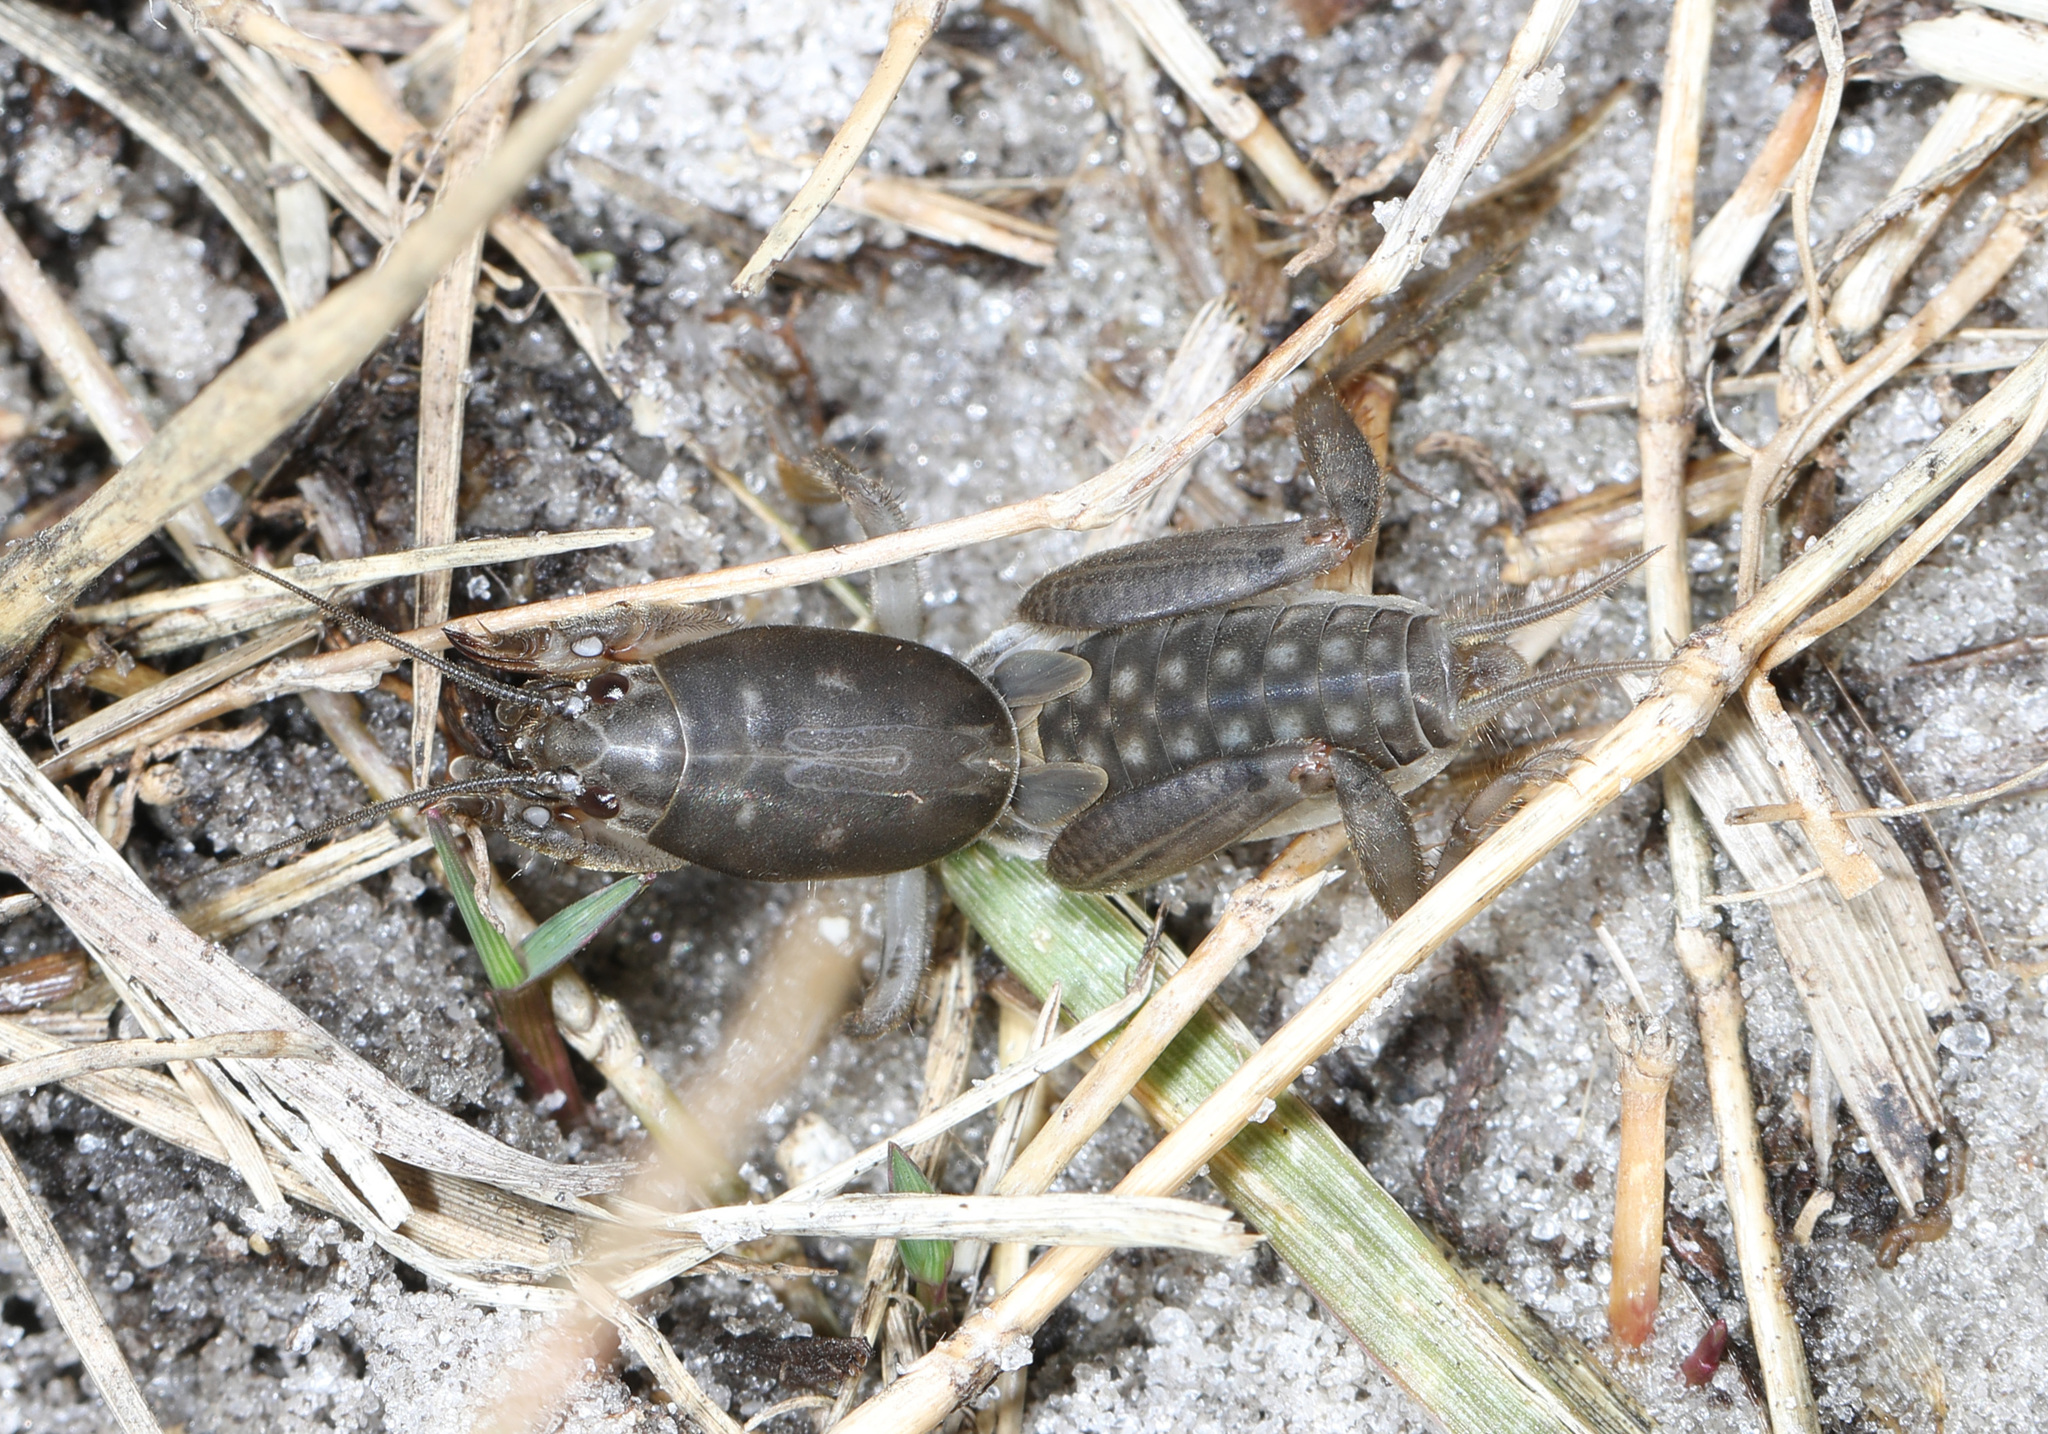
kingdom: Animalia
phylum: Arthropoda
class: Insecta
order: Orthoptera
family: Gryllotalpidae
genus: Neoscapteriscus
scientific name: Neoscapteriscus borellii
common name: Southern mole cricket
